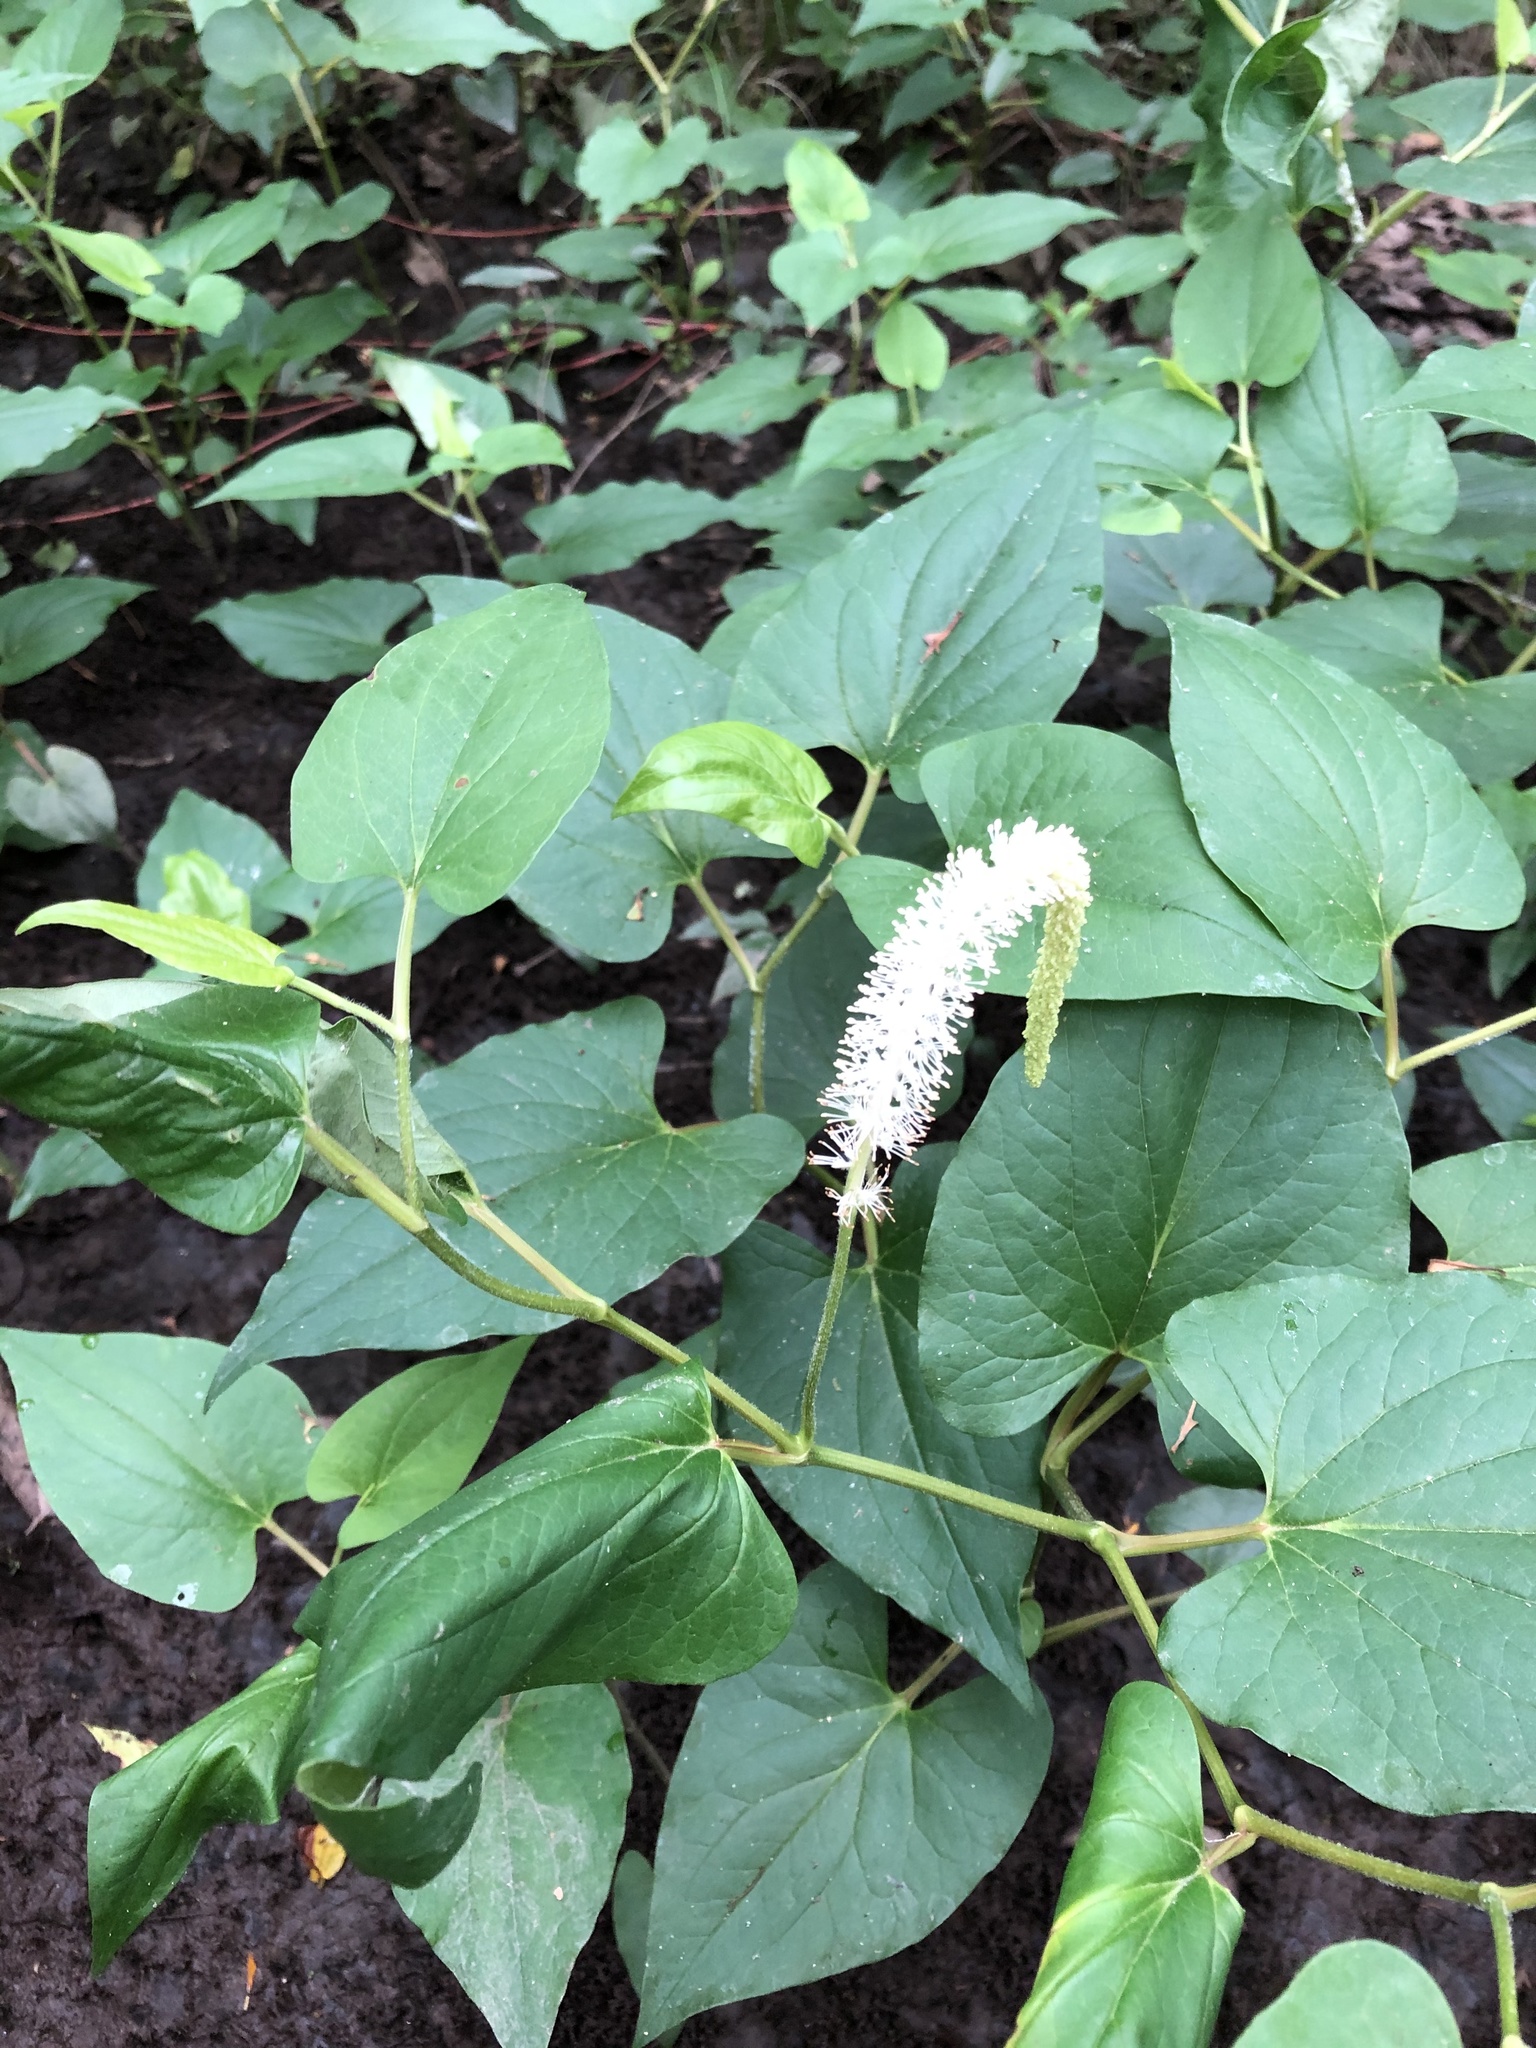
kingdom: Plantae
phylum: Tracheophyta
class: Magnoliopsida
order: Piperales
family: Saururaceae
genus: Saururus
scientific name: Saururus cernuus
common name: Lizard's-tail
